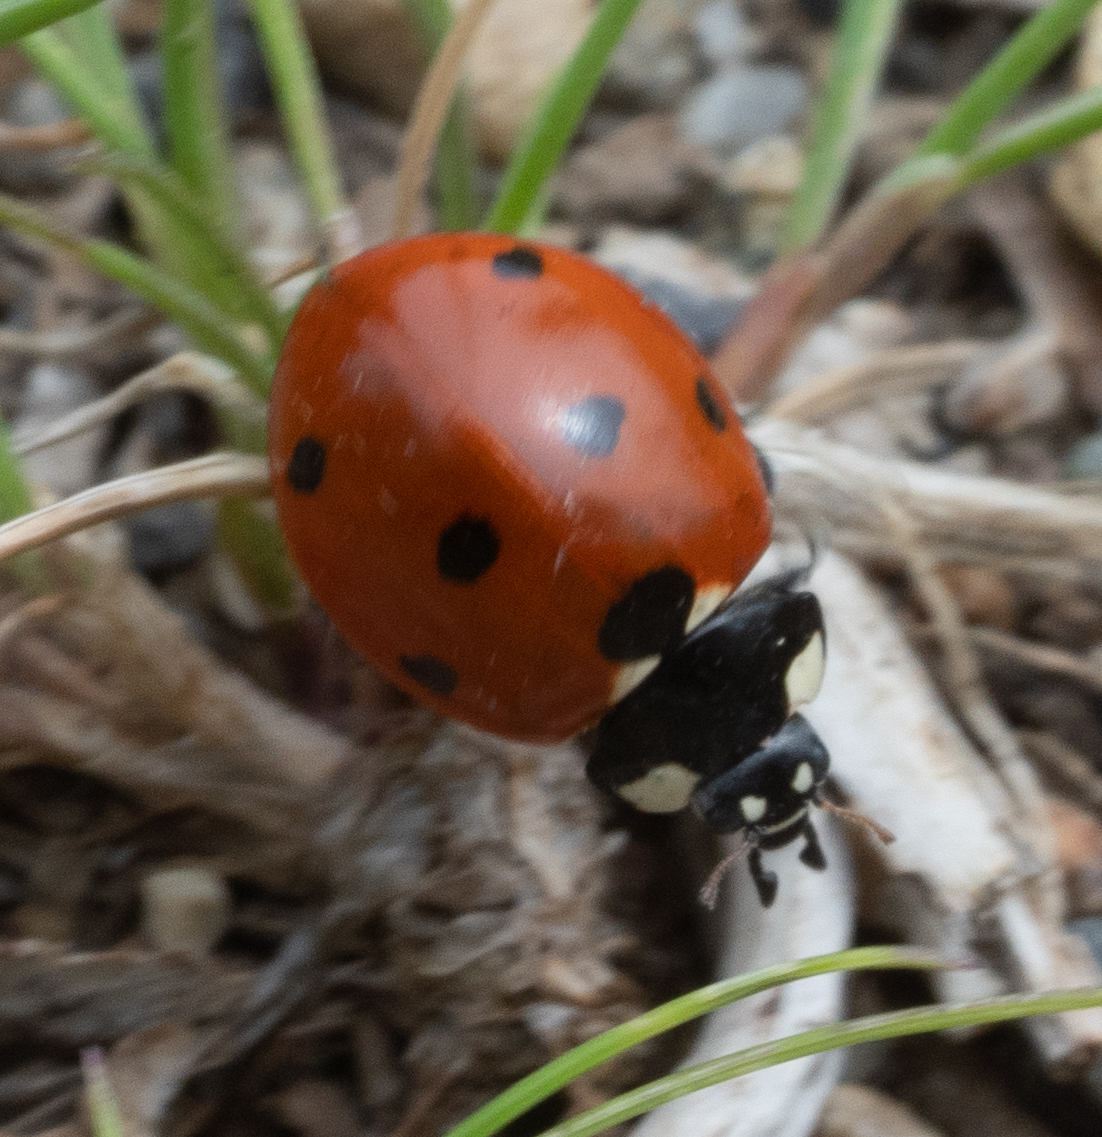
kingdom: Animalia
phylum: Arthropoda
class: Insecta
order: Coleoptera
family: Coccinellidae
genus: Coccinella
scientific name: Coccinella septempunctata
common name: Sevenspotted lady beetle
